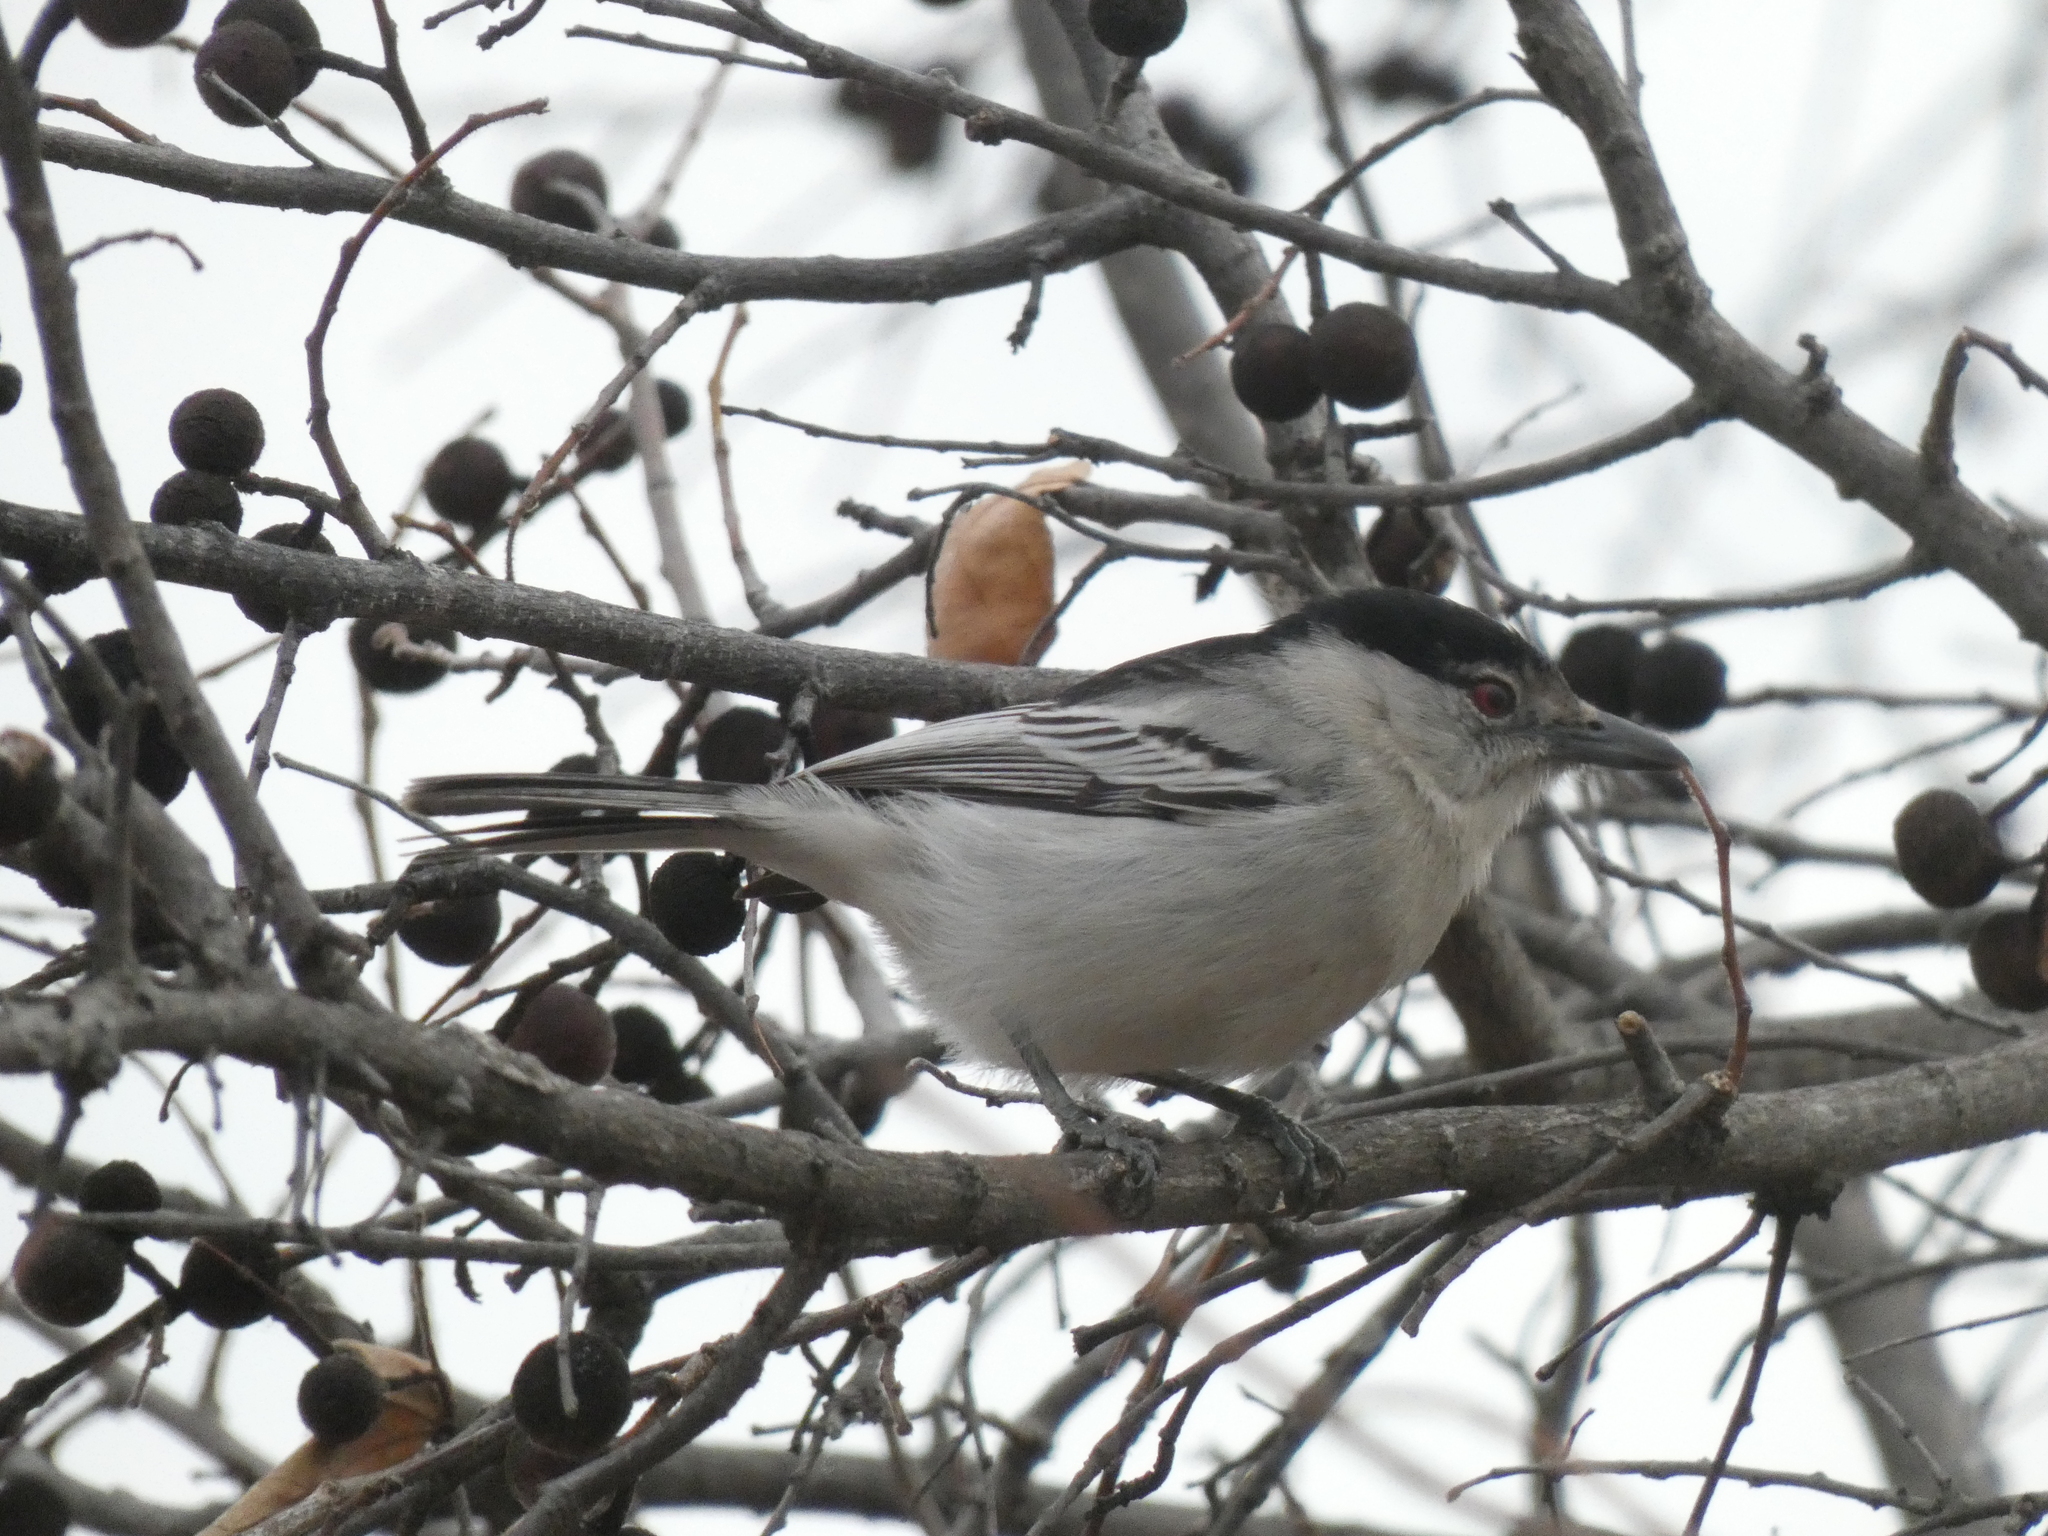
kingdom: Animalia
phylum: Chordata
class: Aves
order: Passeriformes
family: Malaconotidae
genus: Dryoscopus
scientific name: Dryoscopus cubla
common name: Black-backed puffback
